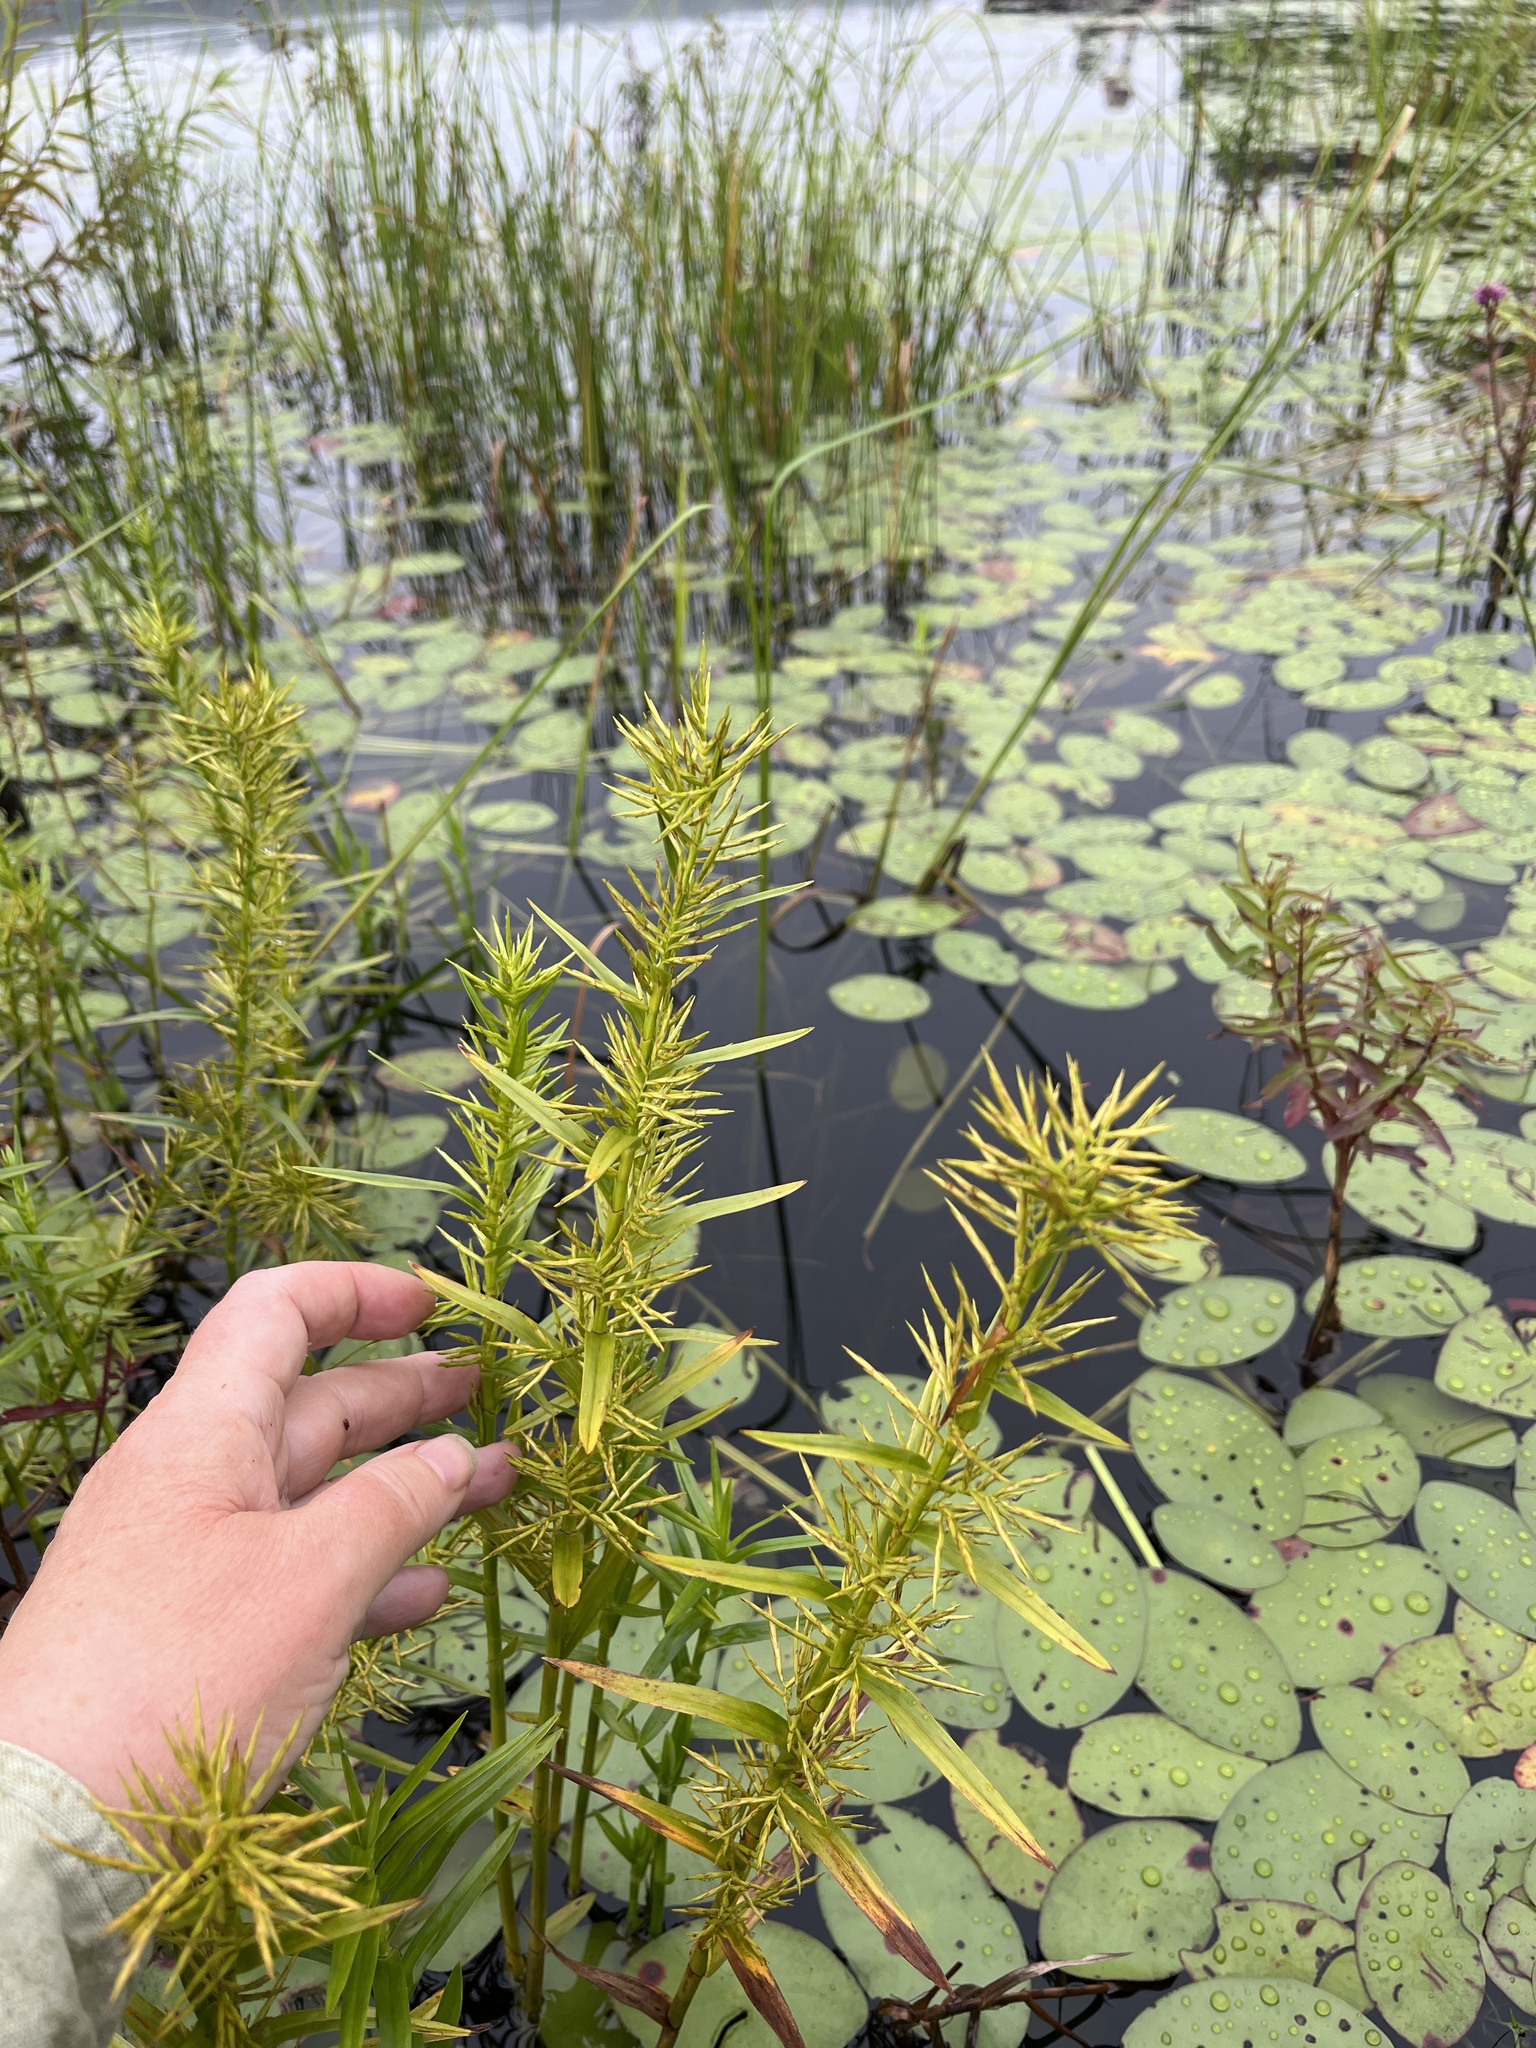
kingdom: Plantae
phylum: Tracheophyta
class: Liliopsida
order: Poales
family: Cyperaceae
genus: Dulichium
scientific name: Dulichium arundinaceum
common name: Three-way sedge
